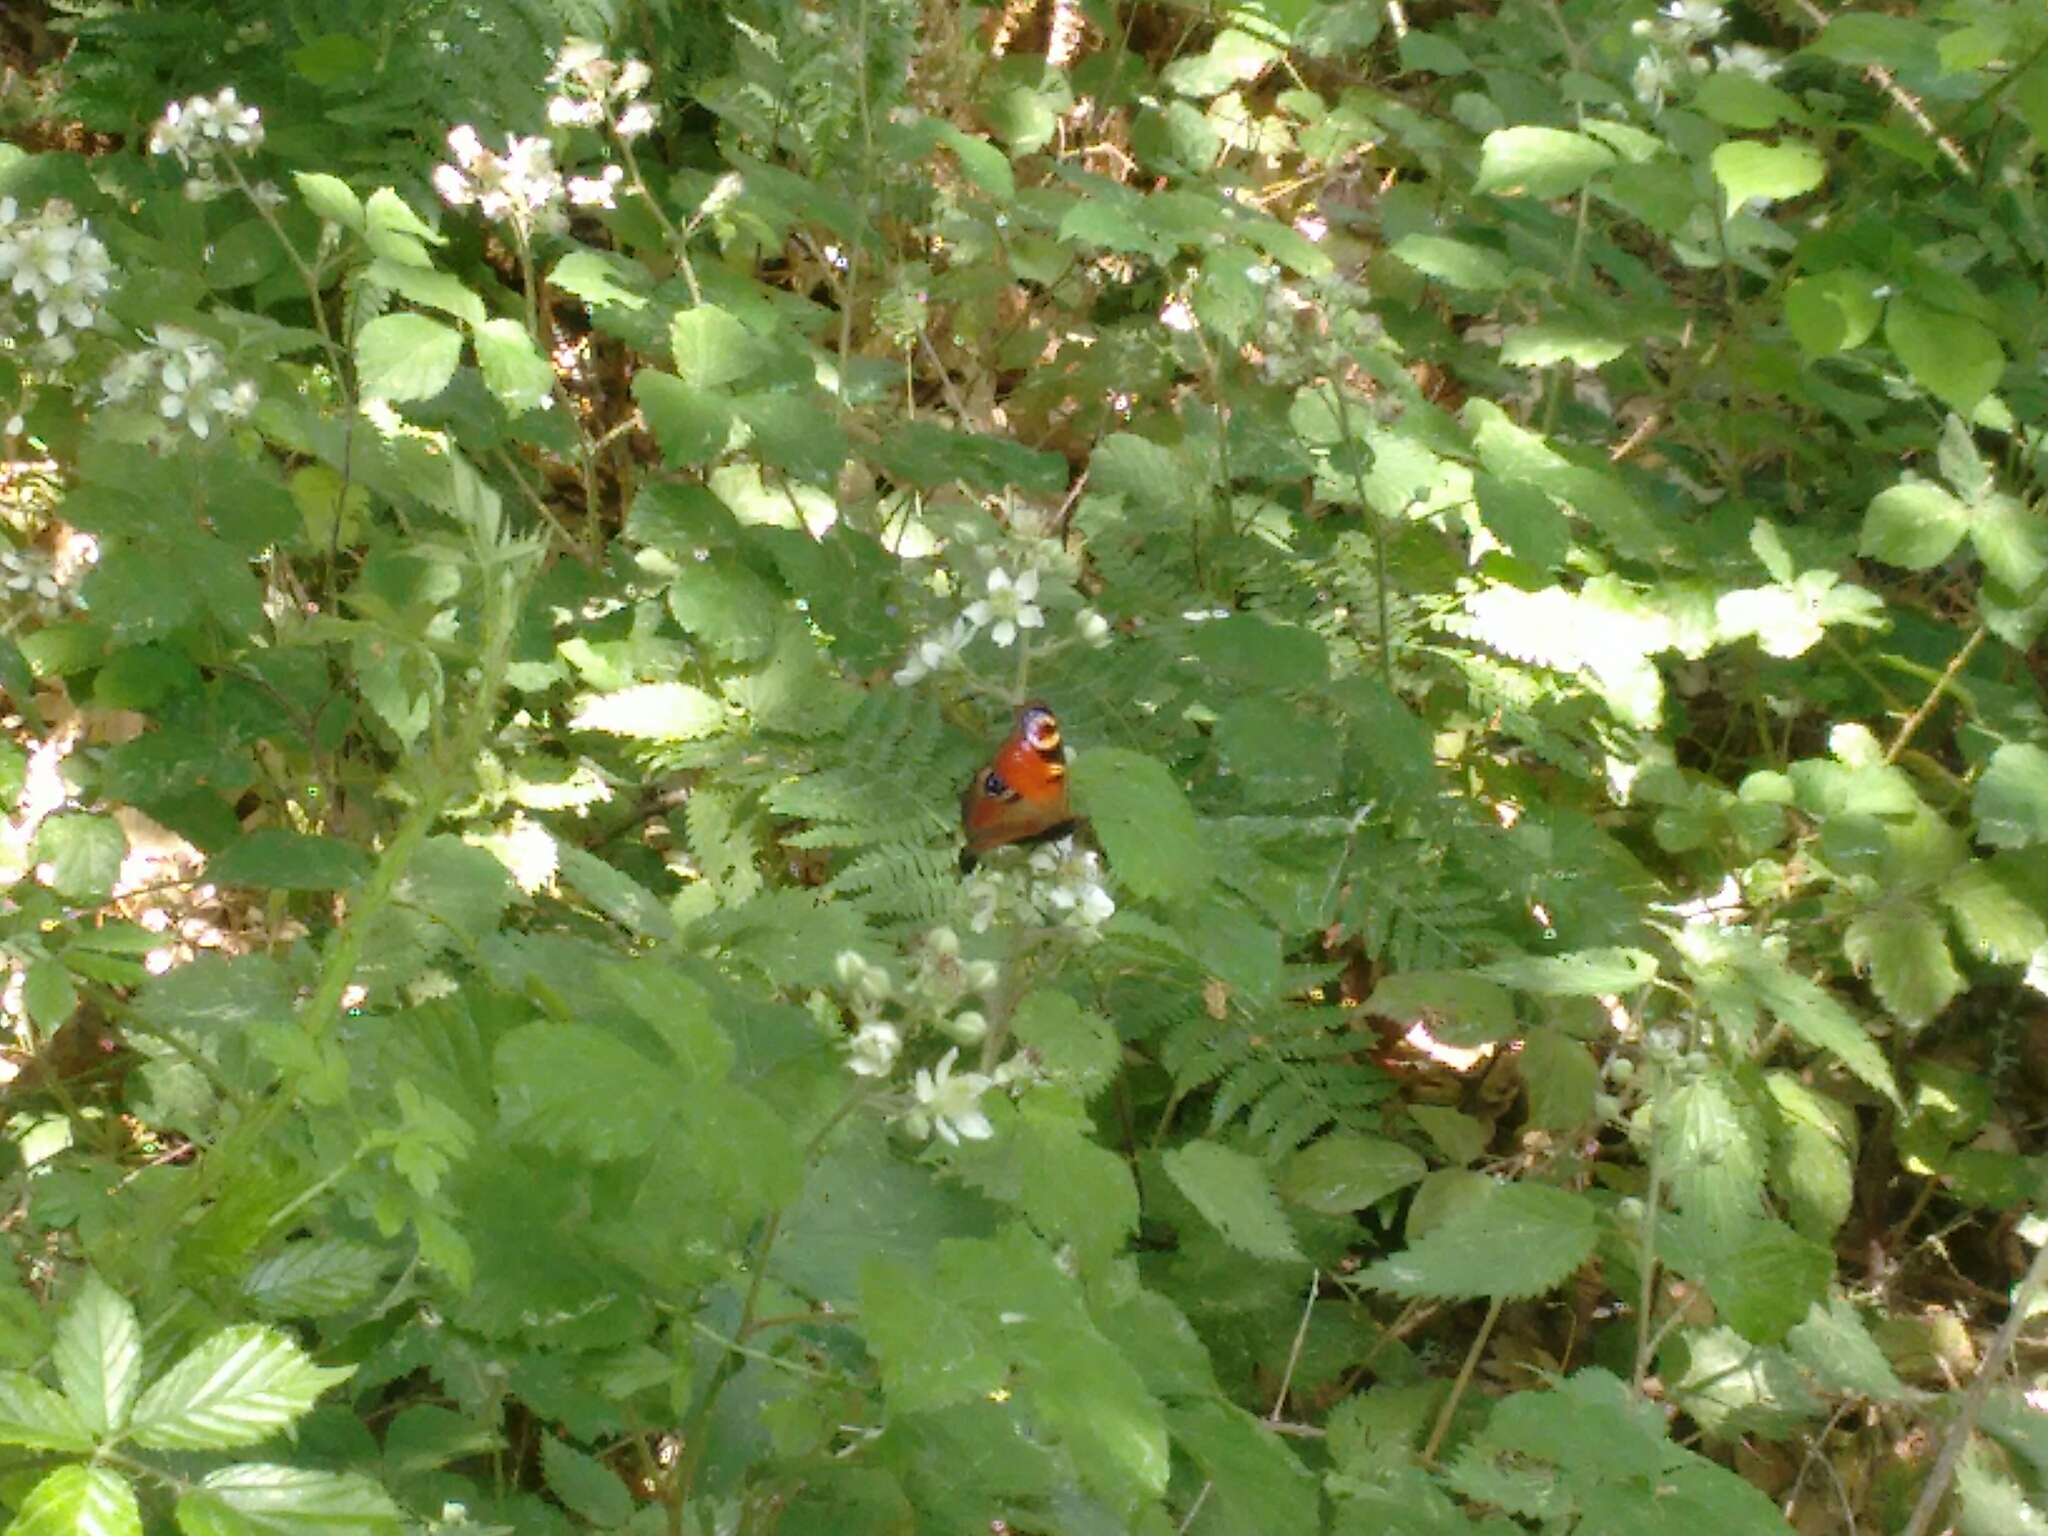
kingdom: Animalia
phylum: Arthropoda
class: Insecta
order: Lepidoptera
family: Nymphalidae
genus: Aglais
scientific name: Aglais io
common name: Peacock
